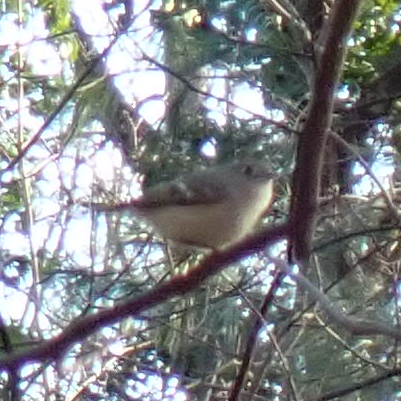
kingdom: Animalia
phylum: Chordata
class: Aves
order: Passeriformes
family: Regulidae
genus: Regulus
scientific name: Regulus calendula
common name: Ruby-crowned kinglet
